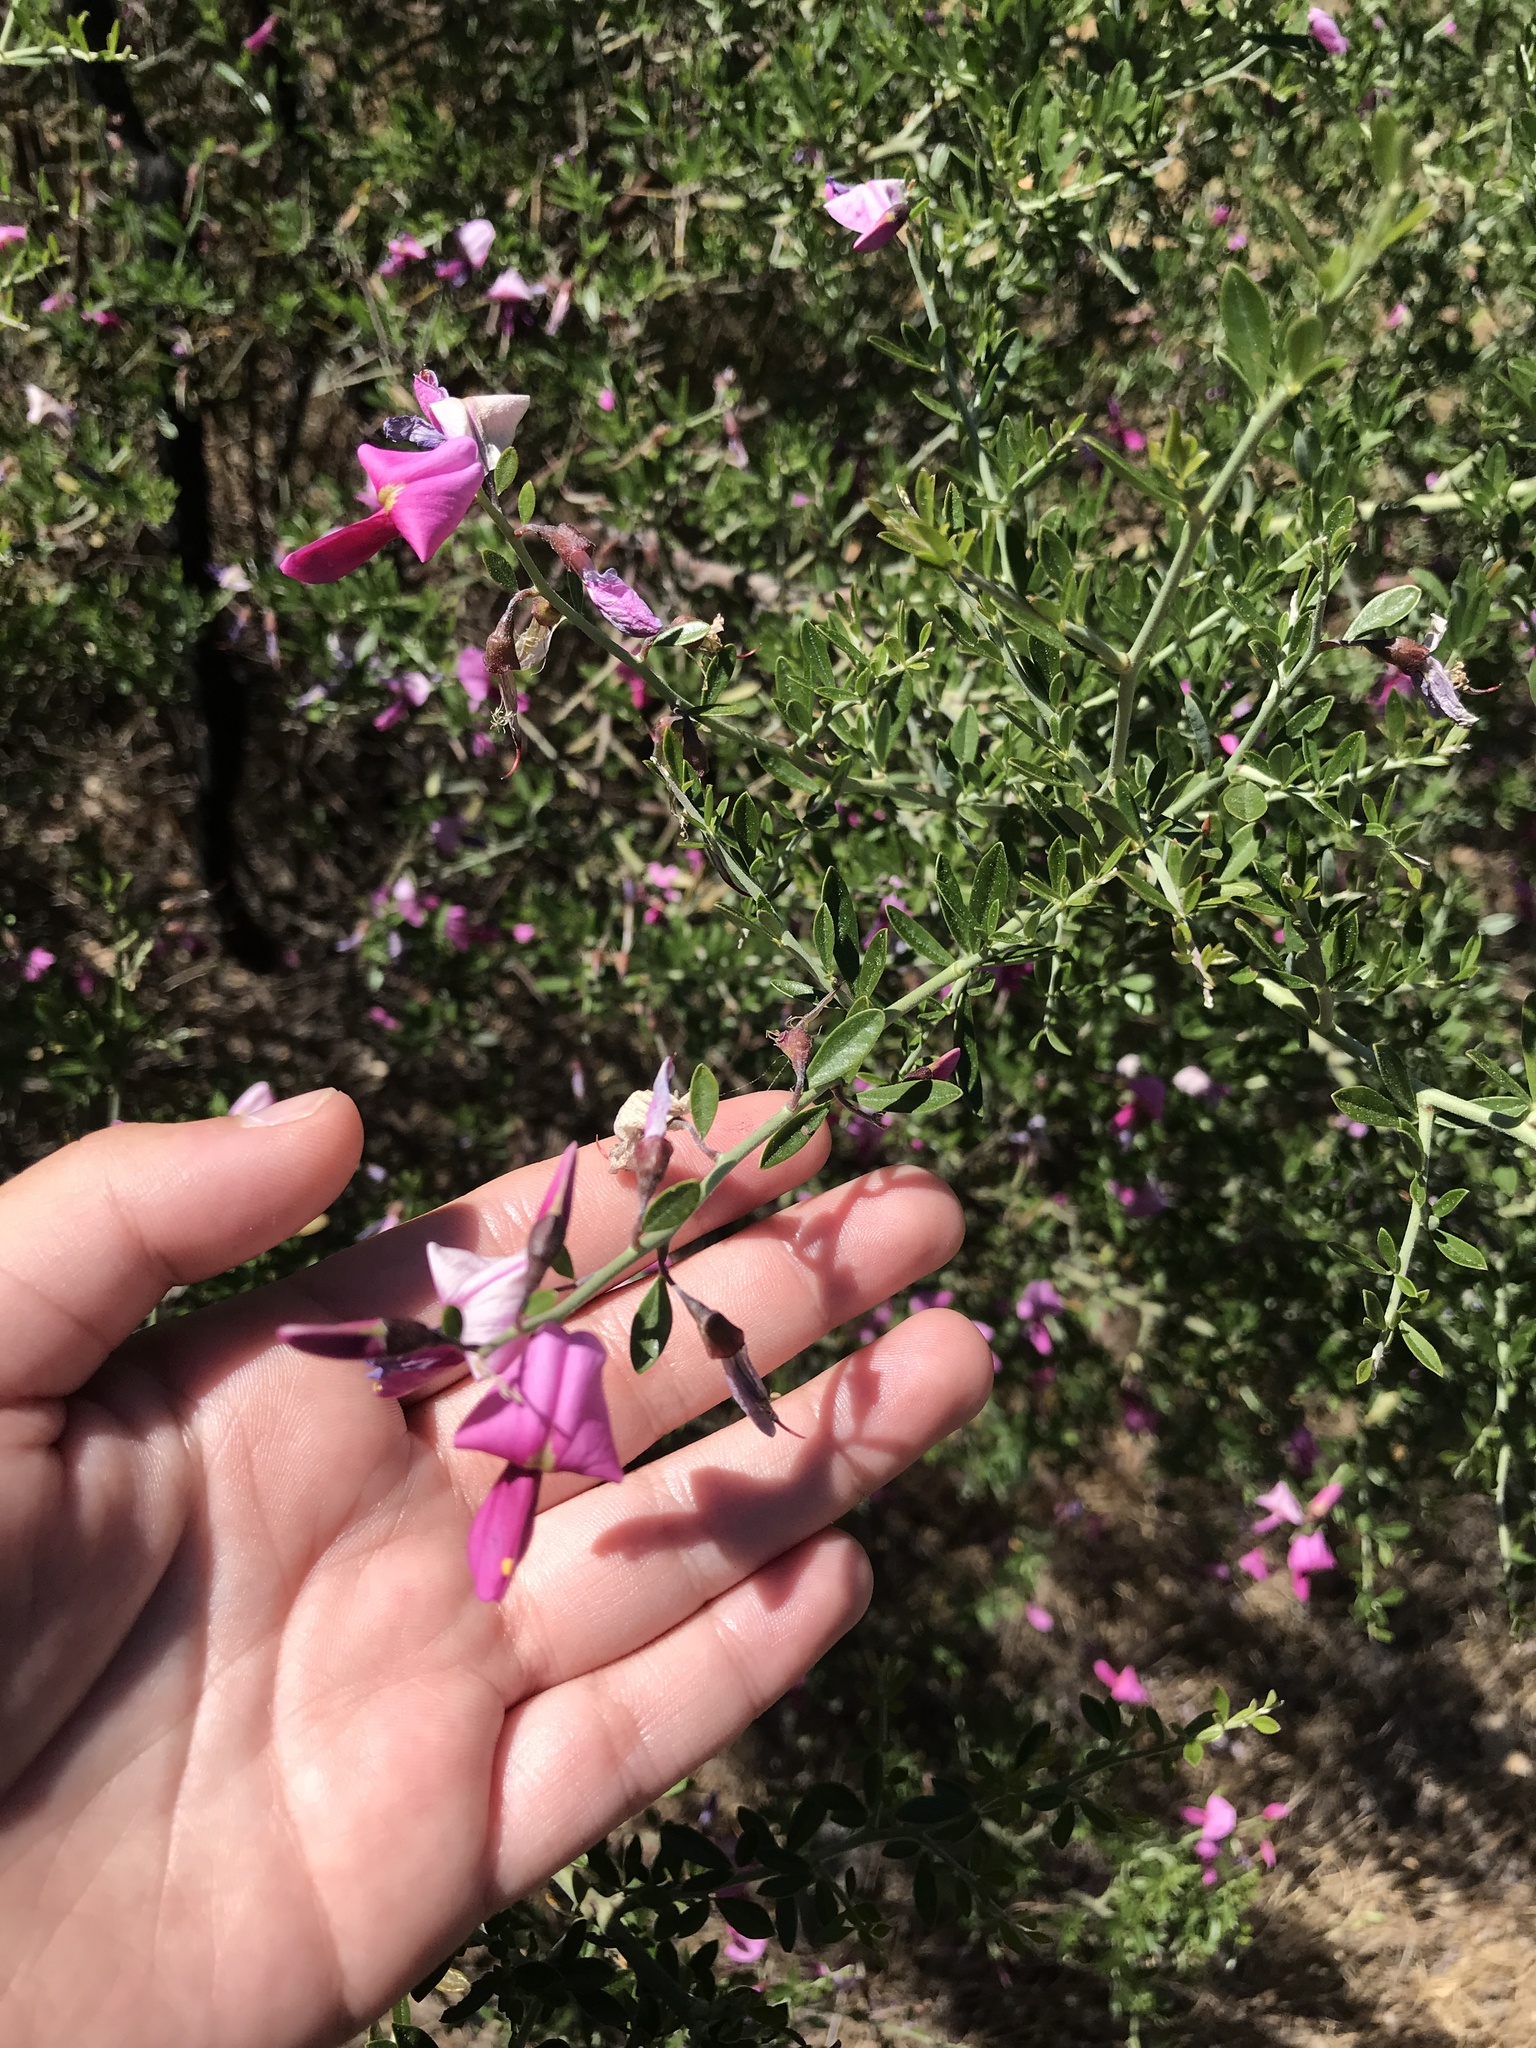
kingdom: Plantae
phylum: Tracheophyta
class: Magnoliopsida
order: Fabales
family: Fabaceae
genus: Pickeringia
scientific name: Pickeringia montana
